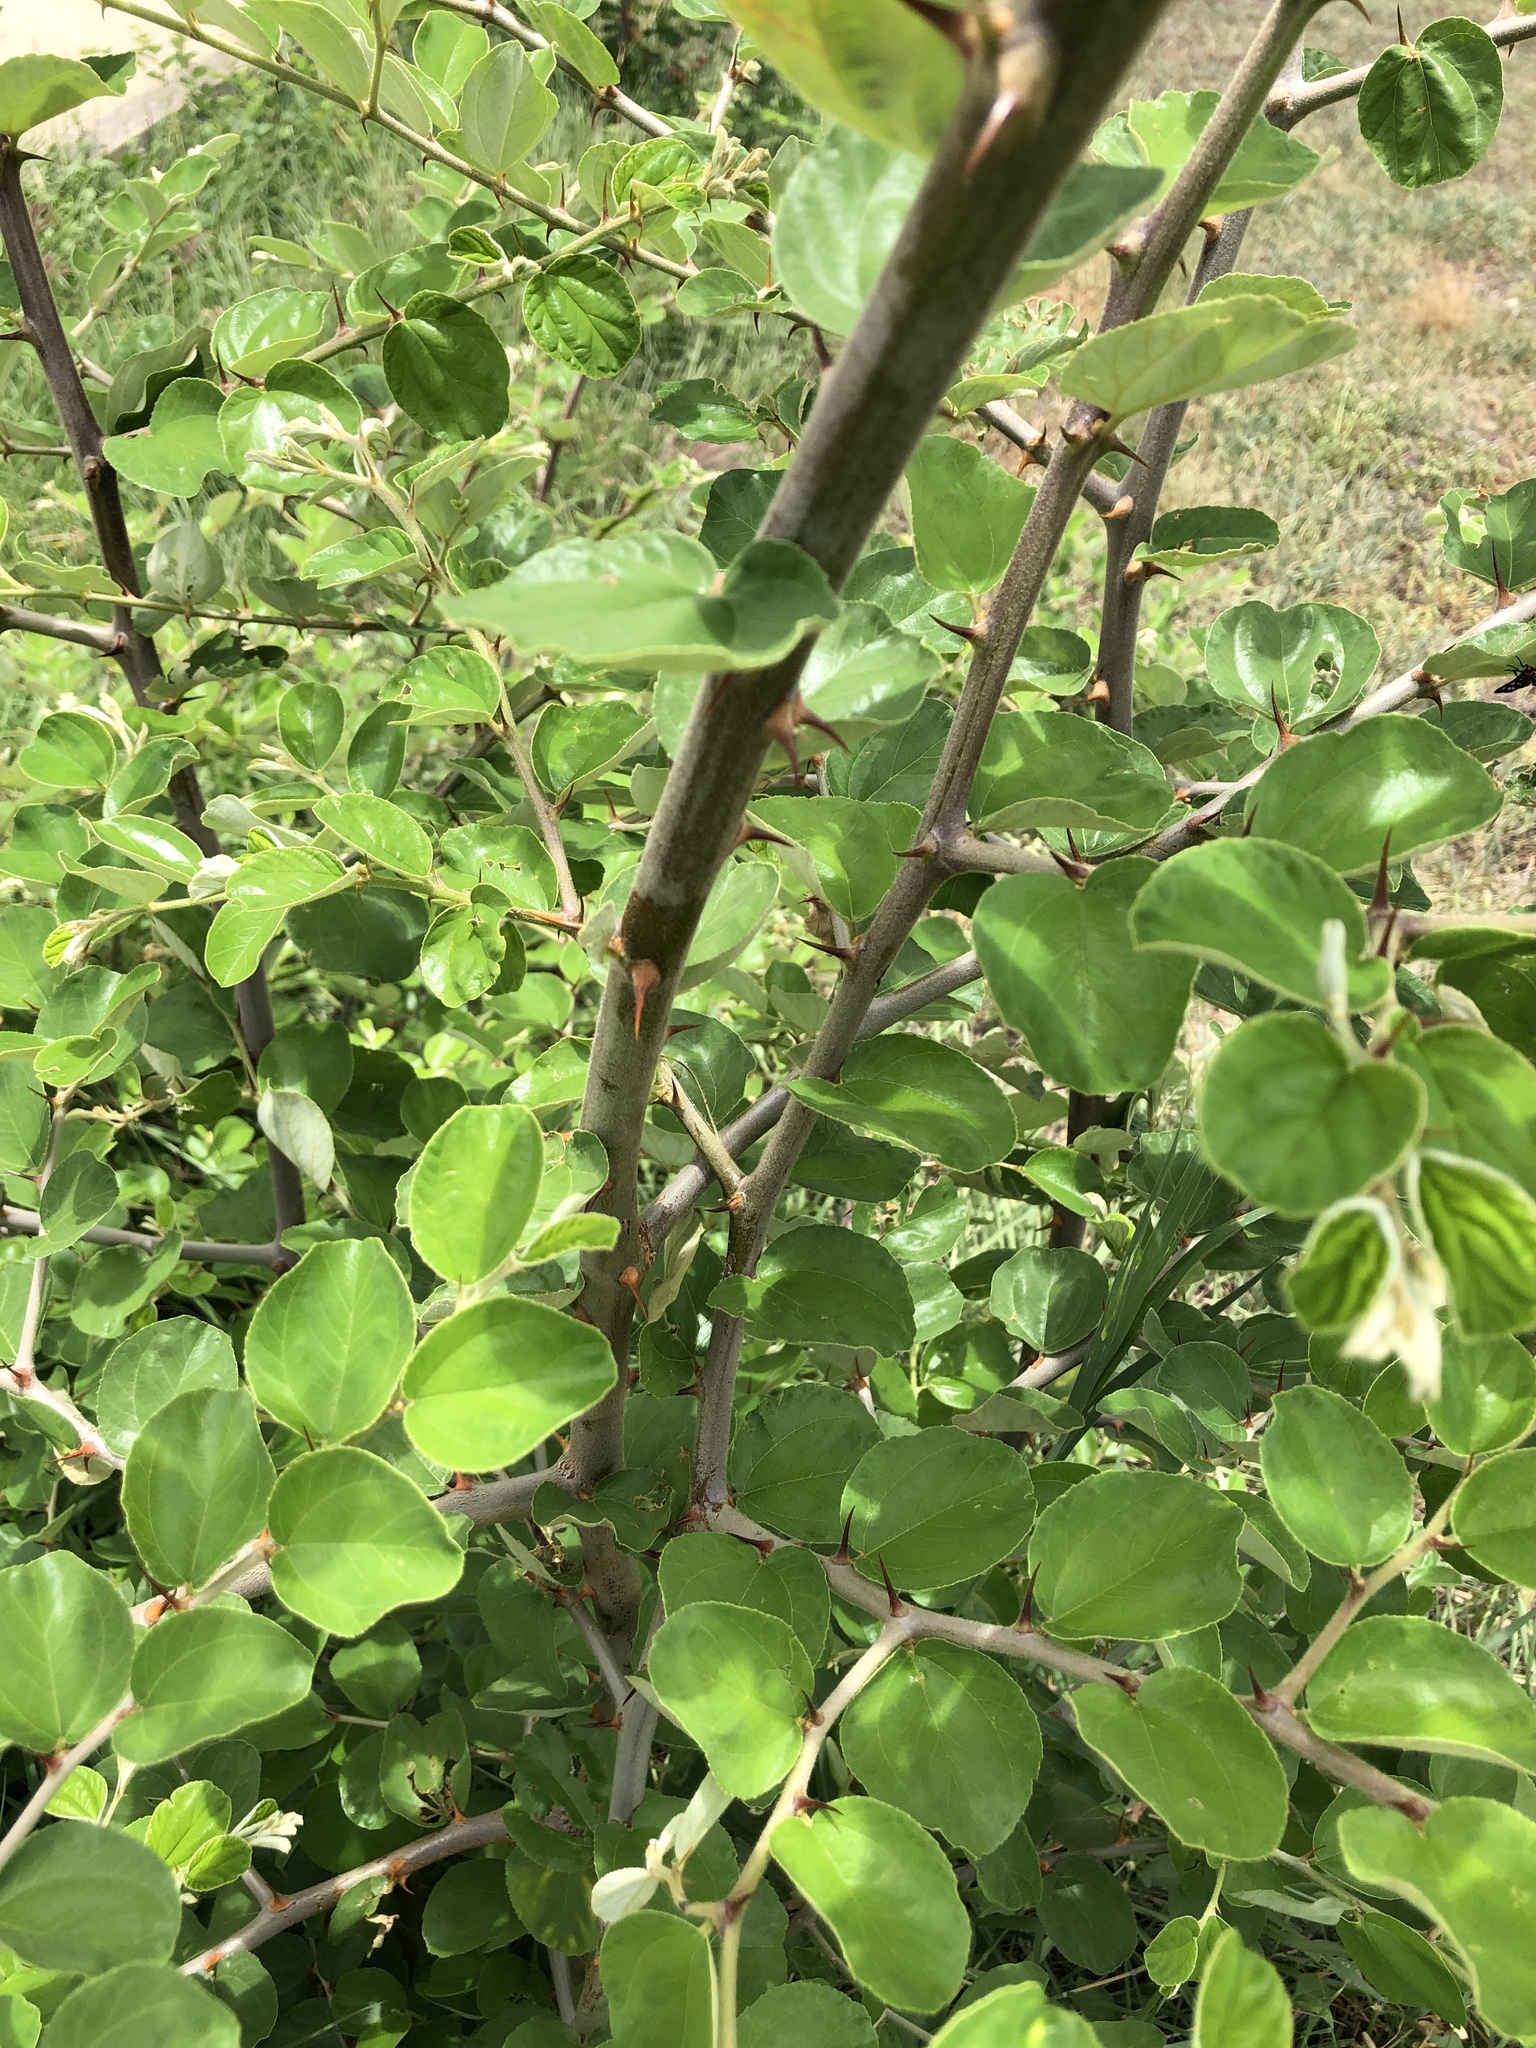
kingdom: Plantae
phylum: Tracheophyta
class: Magnoliopsida
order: Rosales
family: Rhamnaceae
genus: Ziziphus
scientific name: Ziziphus mauritiana
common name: Indian jujube
